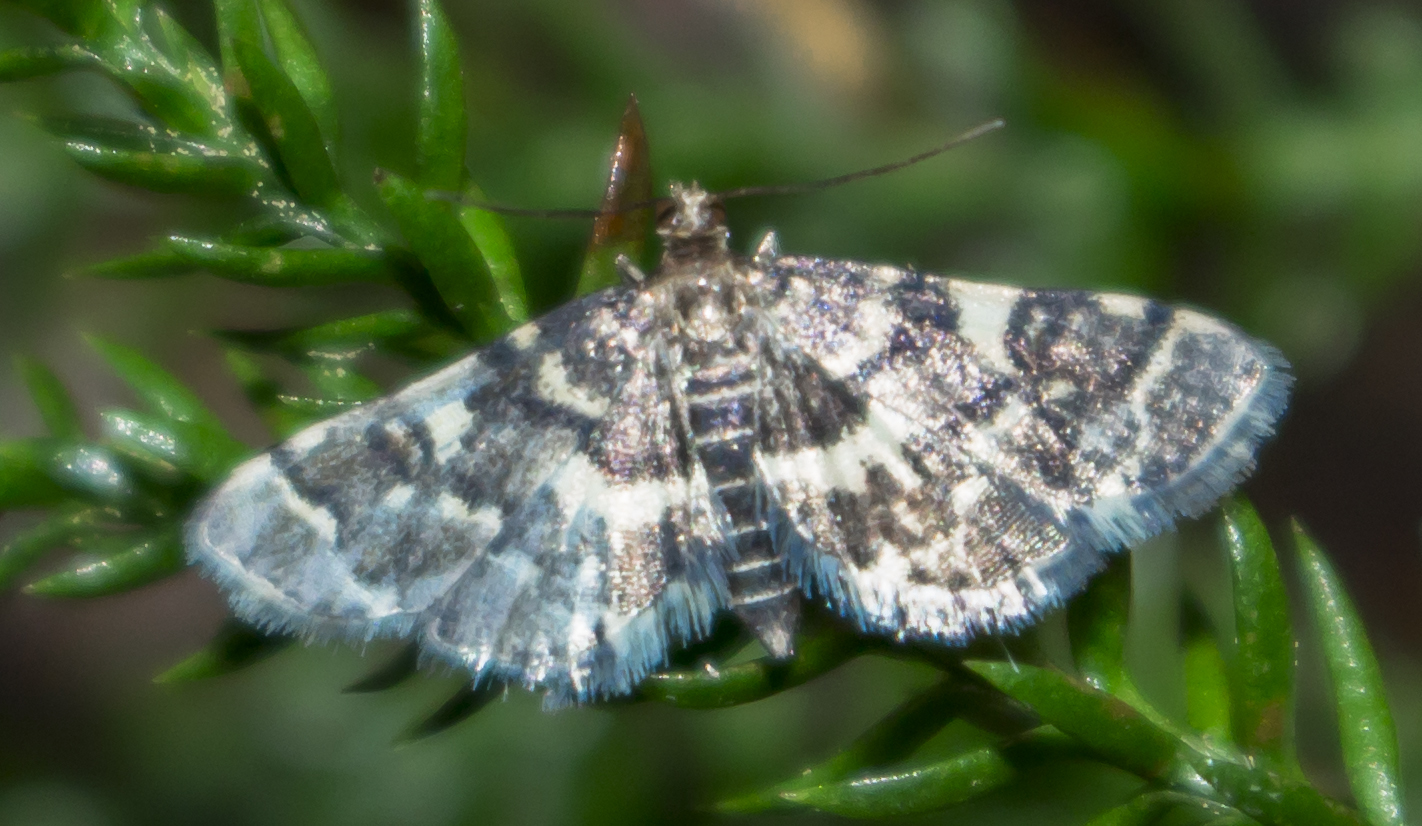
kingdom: Animalia
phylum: Arthropoda
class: Insecta
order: Lepidoptera
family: Crambidae
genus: Anageshna
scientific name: Anageshna primordialis
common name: Yellow-spotted webworm moth
